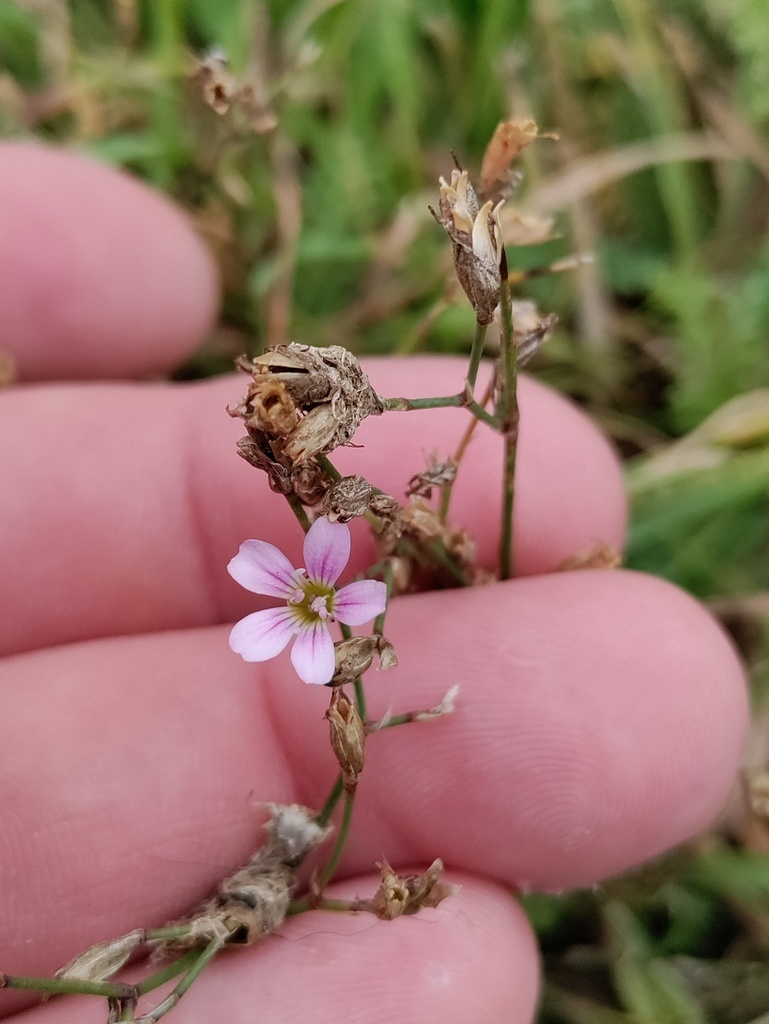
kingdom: Plantae
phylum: Tracheophyta
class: Magnoliopsida
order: Caryophyllales
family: Caryophyllaceae
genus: Petrorhagia
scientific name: Petrorhagia saxifraga
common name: Tunicflower
